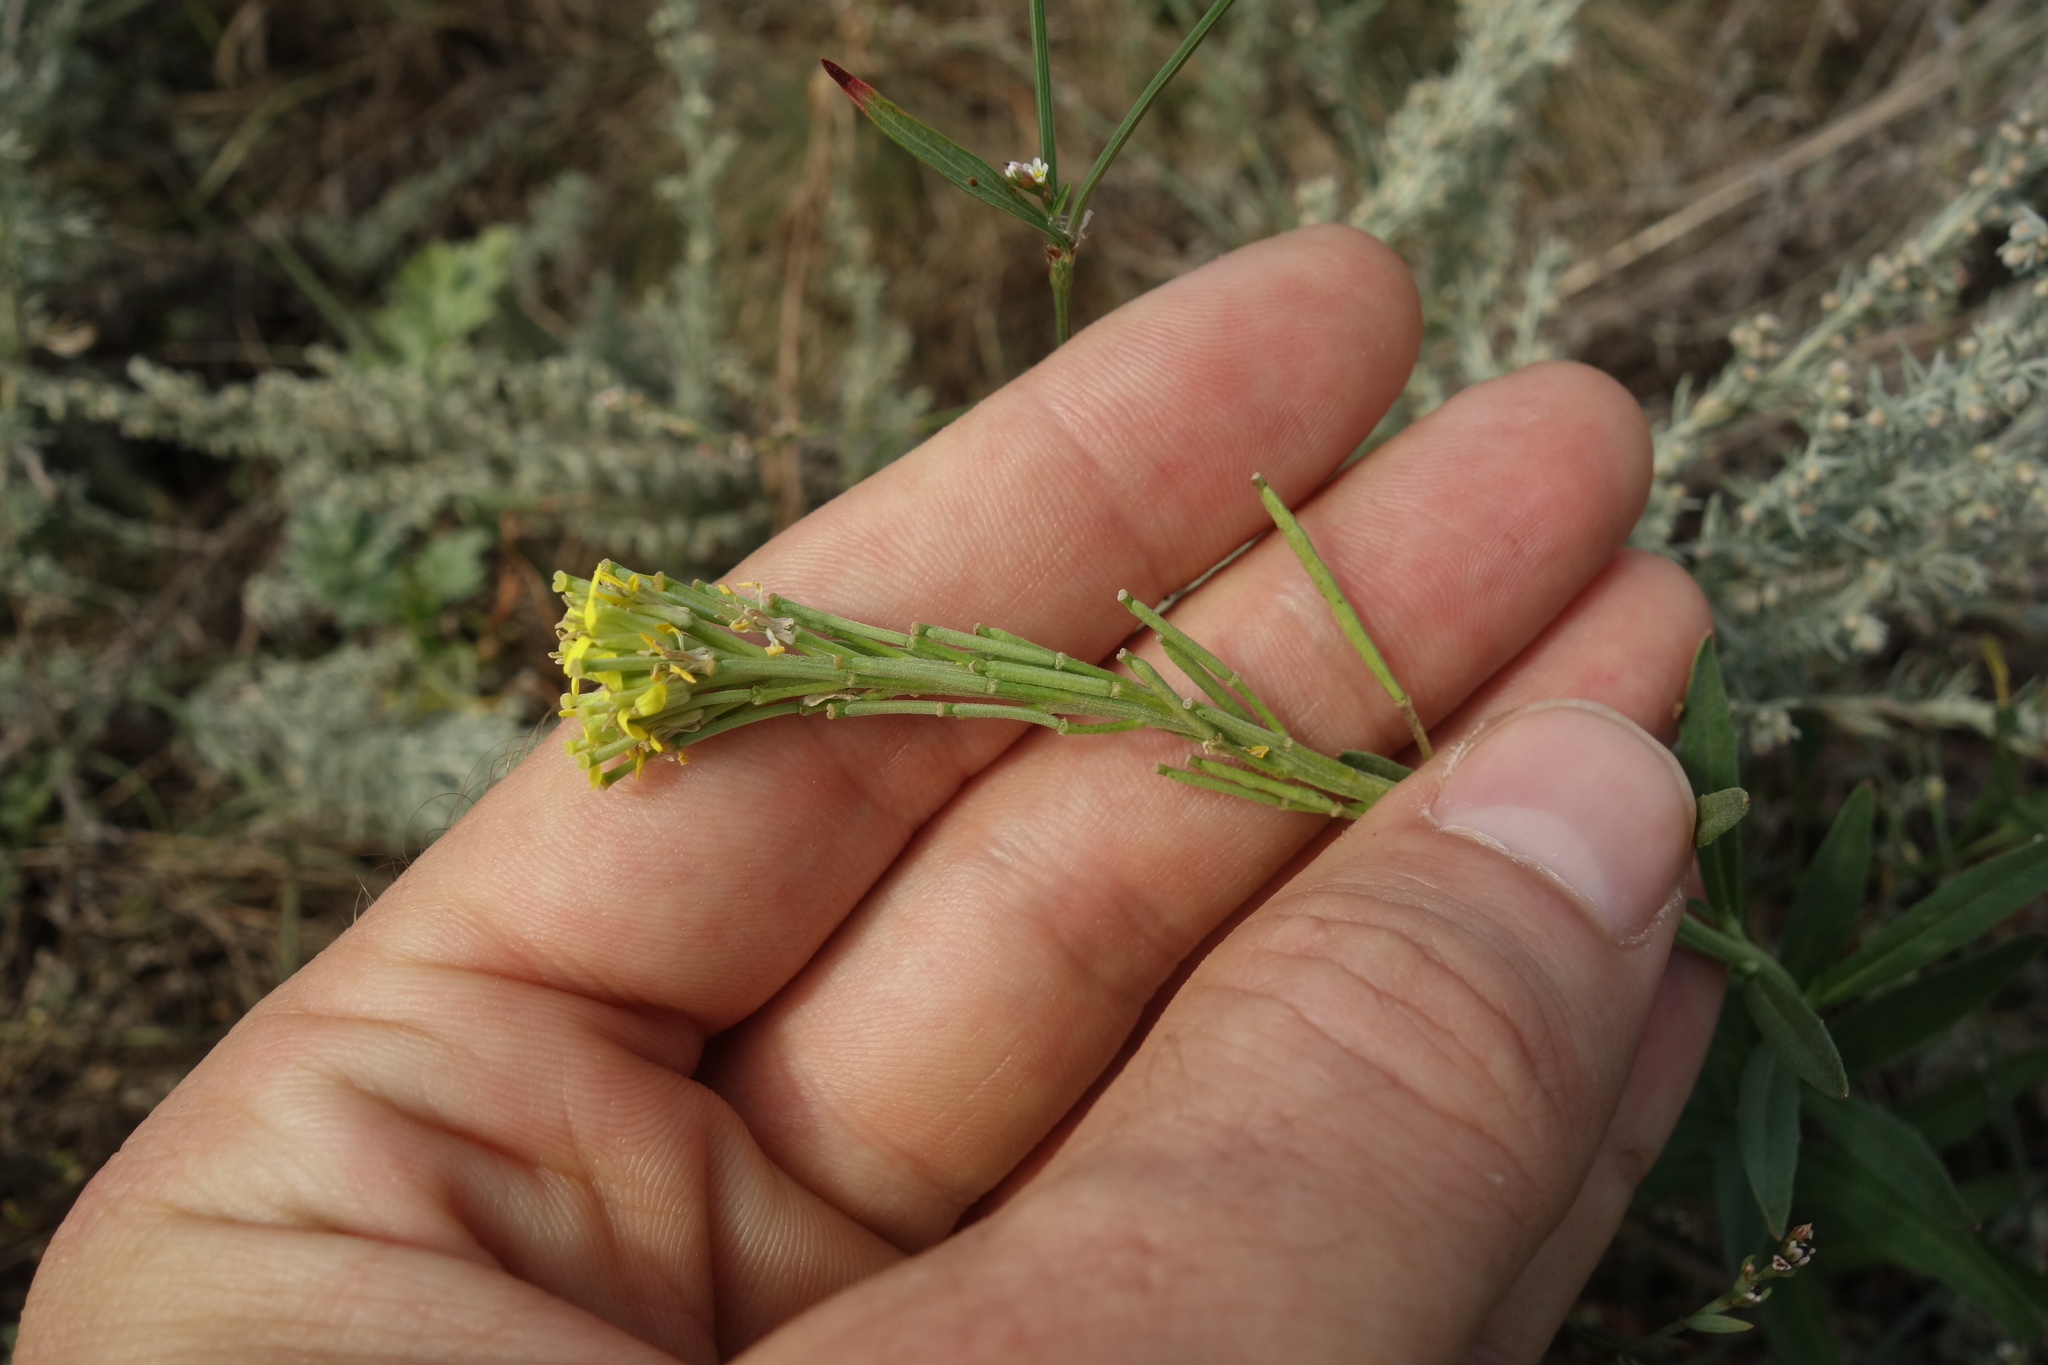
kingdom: Plantae
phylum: Tracheophyta
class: Magnoliopsida
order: Brassicales
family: Brassicaceae
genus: Erysimum
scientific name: Erysimum hieraciifolium
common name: European wallflower
